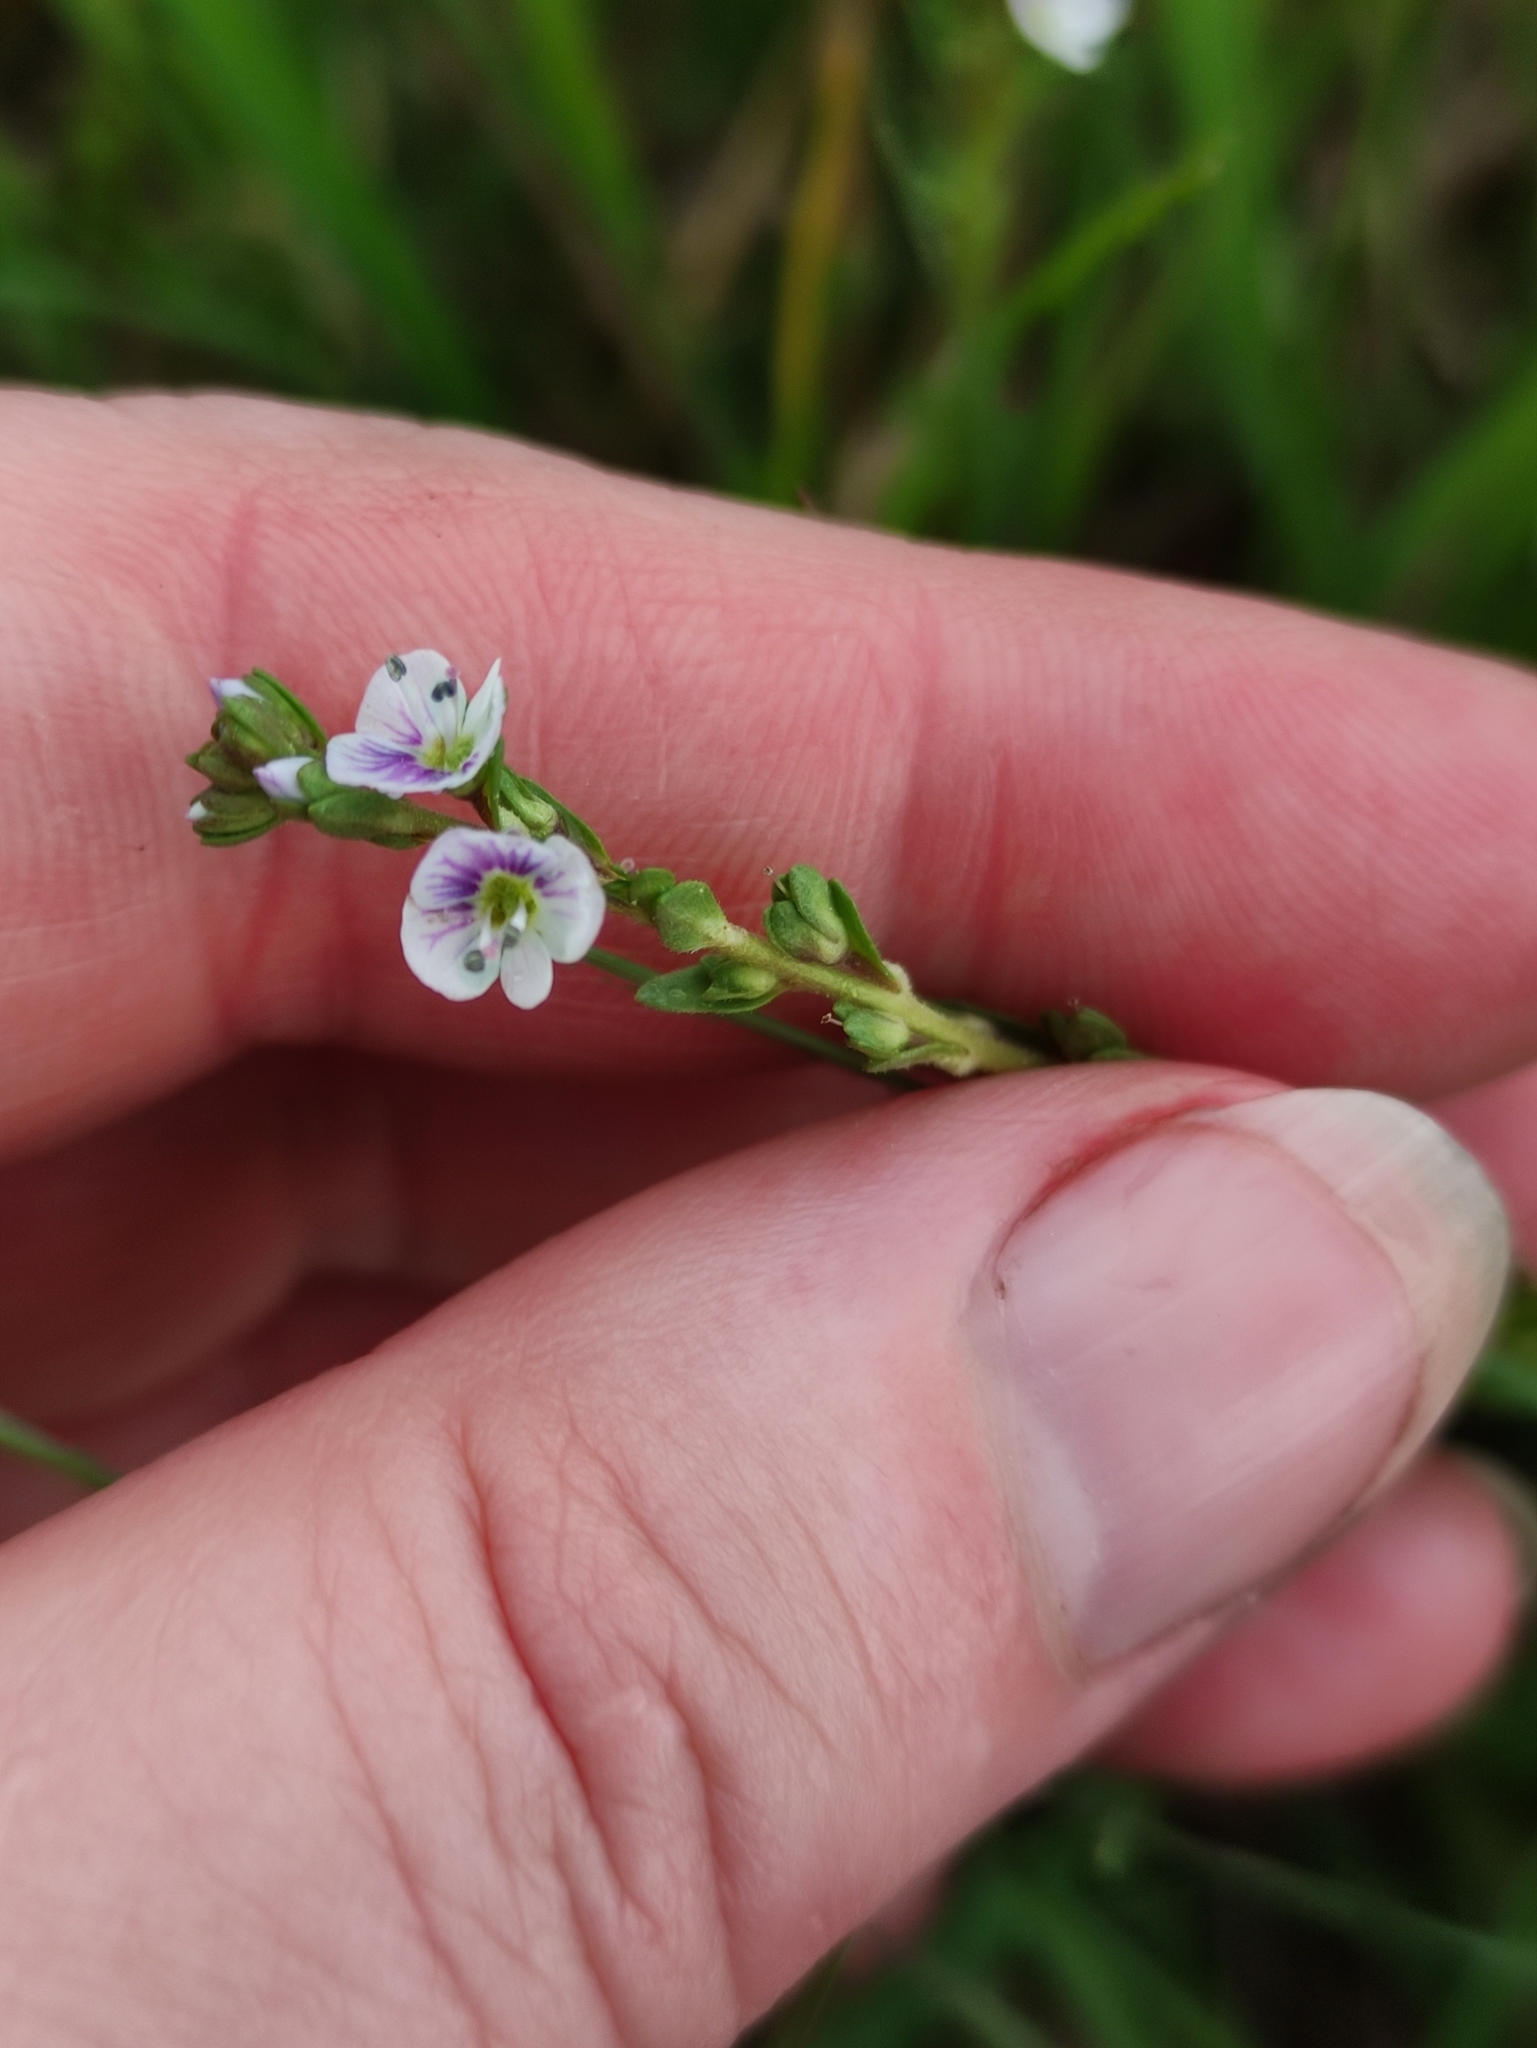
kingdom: Plantae
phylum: Tracheophyta
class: Magnoliopsida
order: Lamiales
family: Plantaginaceae
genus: Veronica
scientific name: Veronica serpyllifolia
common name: Thyme-leaved speedwell
